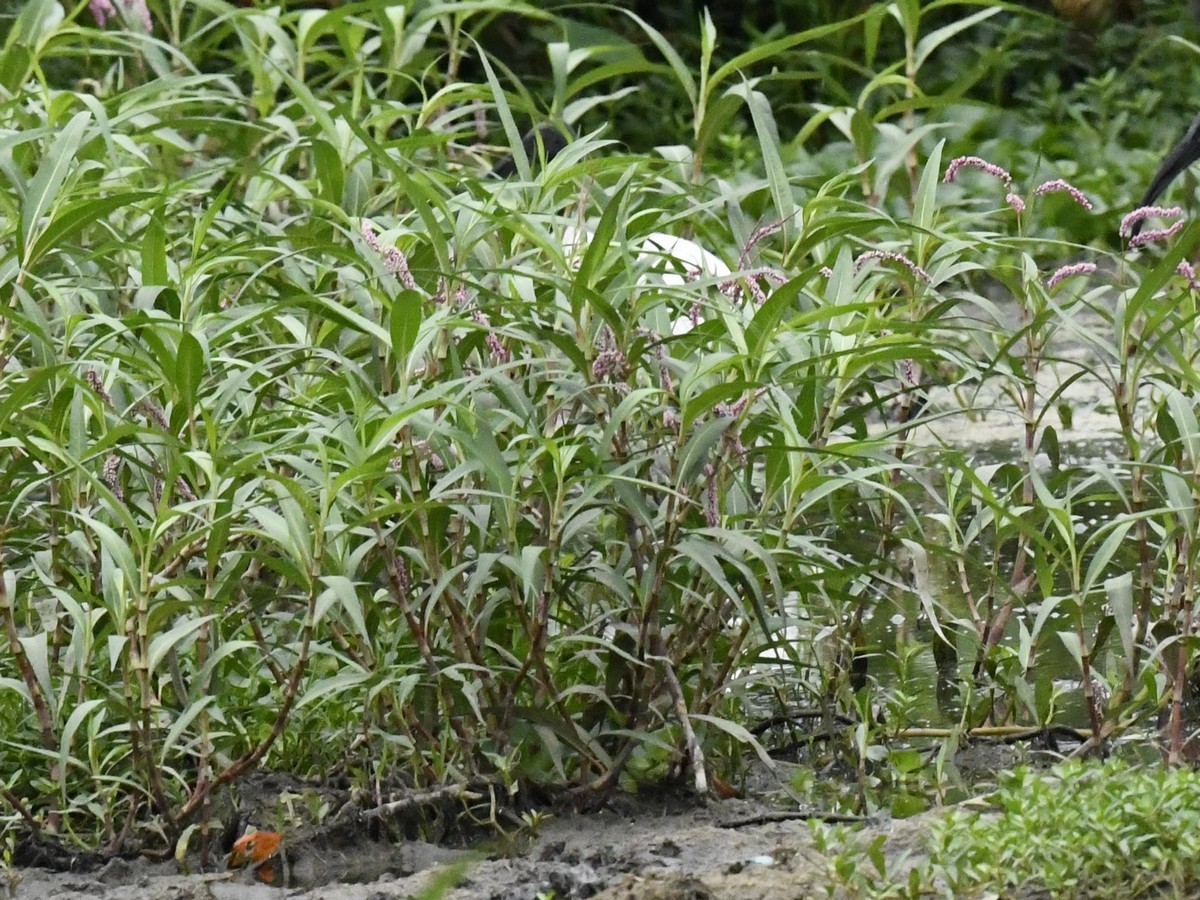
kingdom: Plantae
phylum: Tracheophyta
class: Magnoliopsida
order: Caryophyllales
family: Polygonaceae
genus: Persicaria
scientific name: Persicaria glabra
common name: Denseflower knotweed
